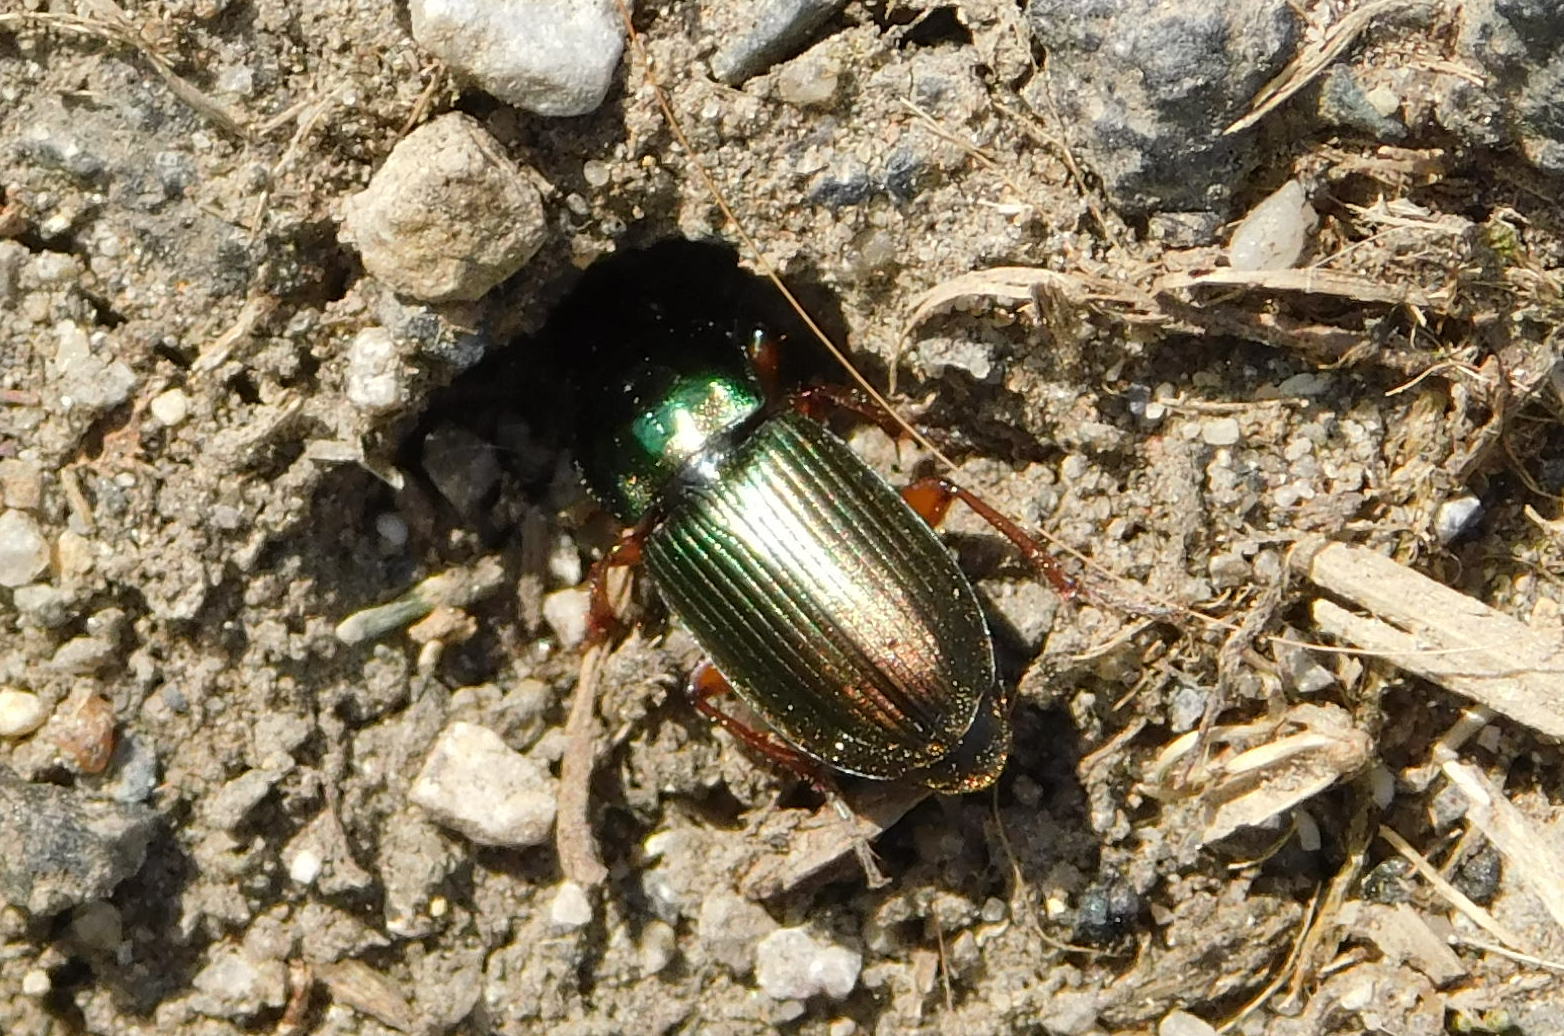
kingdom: Animalia
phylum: Arthropoda
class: Insecta
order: Coleoptera
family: Carabidae
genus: Harpalus
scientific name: Harpalus affinis
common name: Polychrome harp ground beetle
